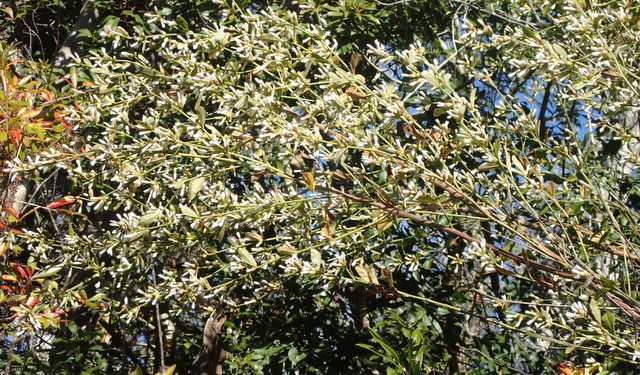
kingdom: Plantae
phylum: Tracheophyta
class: Magnoliopsida
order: Asterales
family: Asteraceae
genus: Baccharis
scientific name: Baccharis glomeruliflora
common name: Silverling groundsel bush
